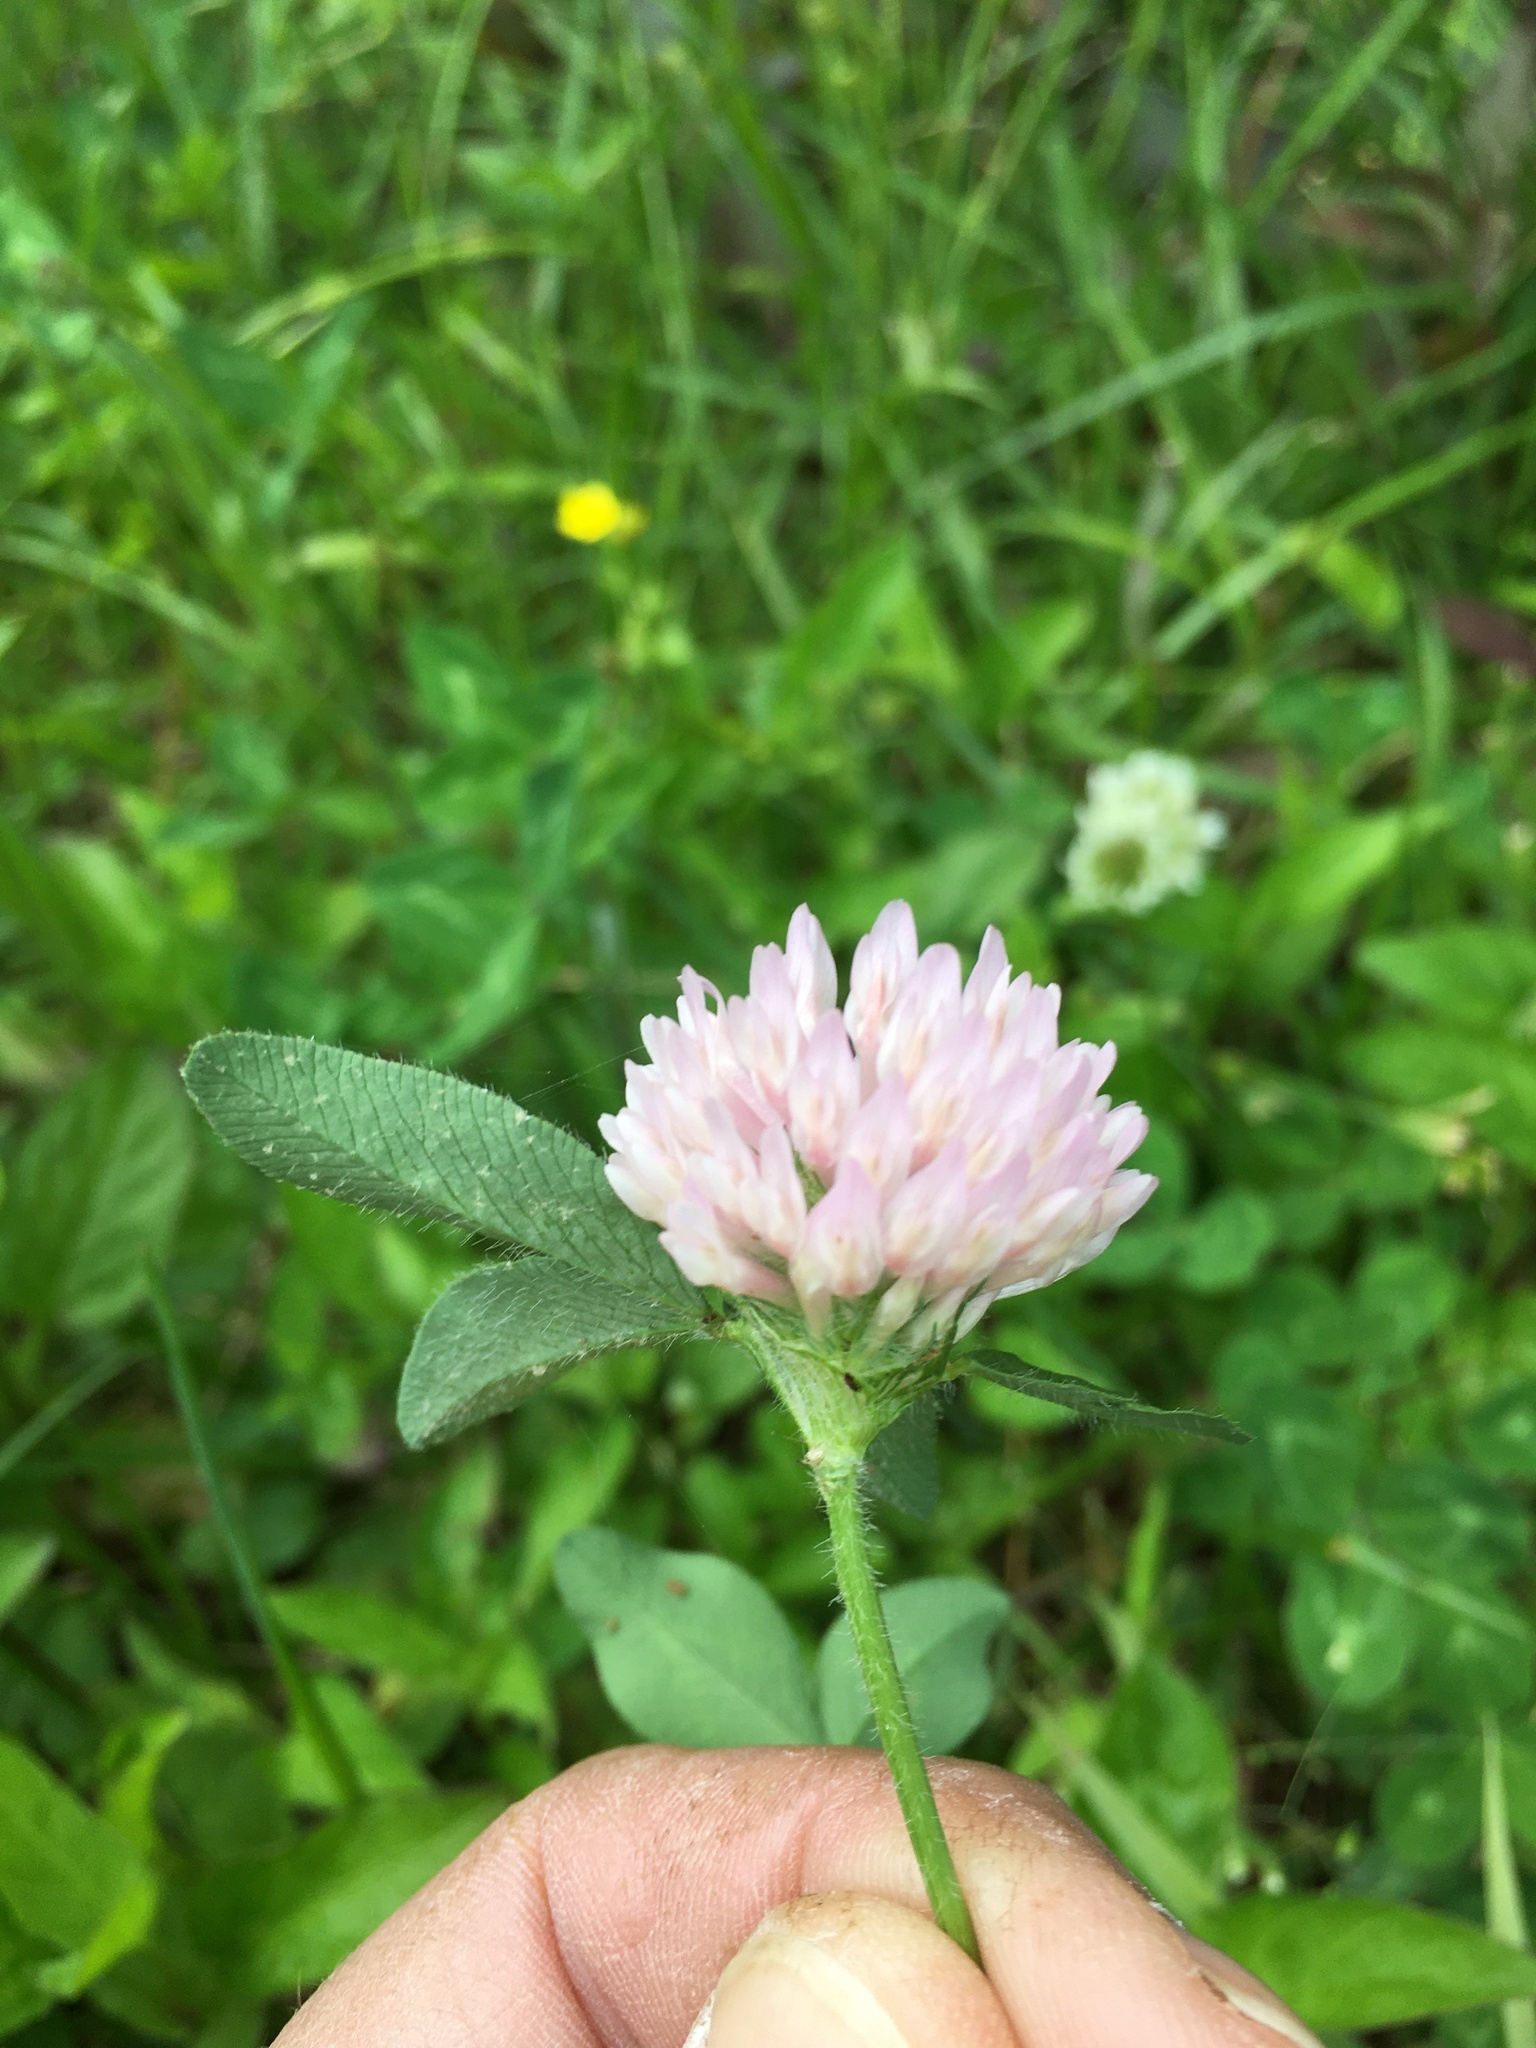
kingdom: Plantae
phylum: Tracheophyta
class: Magnoliopsida
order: Fabales
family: Fabaceae
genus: Trifolium
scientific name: Trifolium pratense
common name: Red clover
